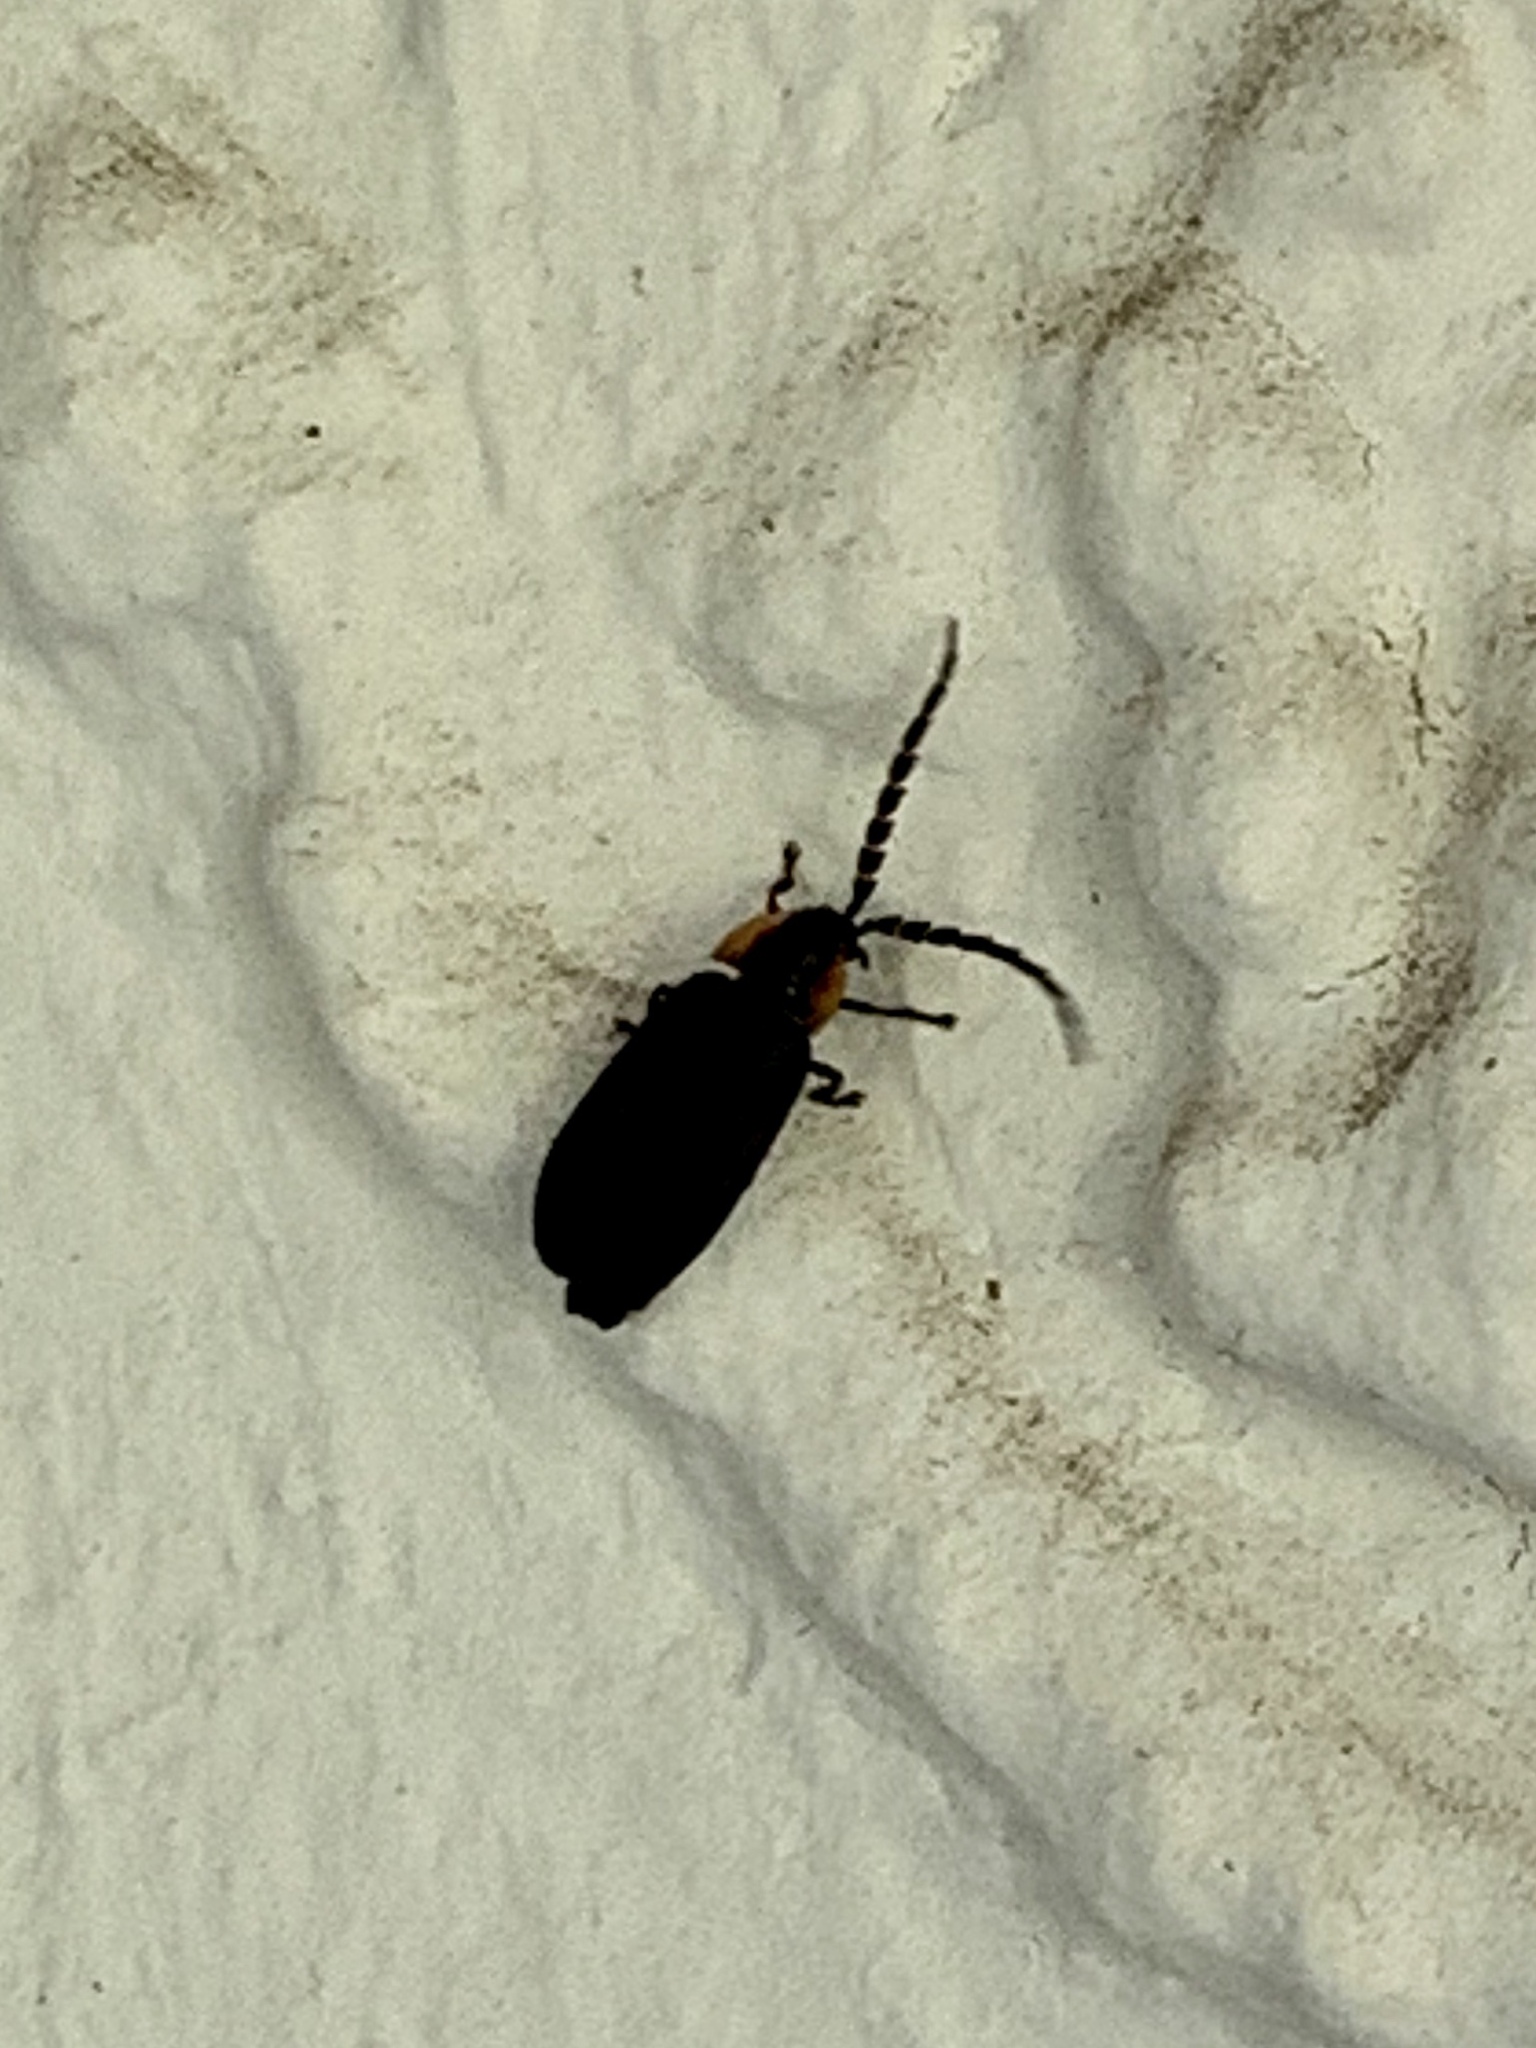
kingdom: Animalia
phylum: Arthropoda
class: Insecta
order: Coleoptera
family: Lampyridae
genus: Lucidota
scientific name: Lucidota atra
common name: Black firefly
